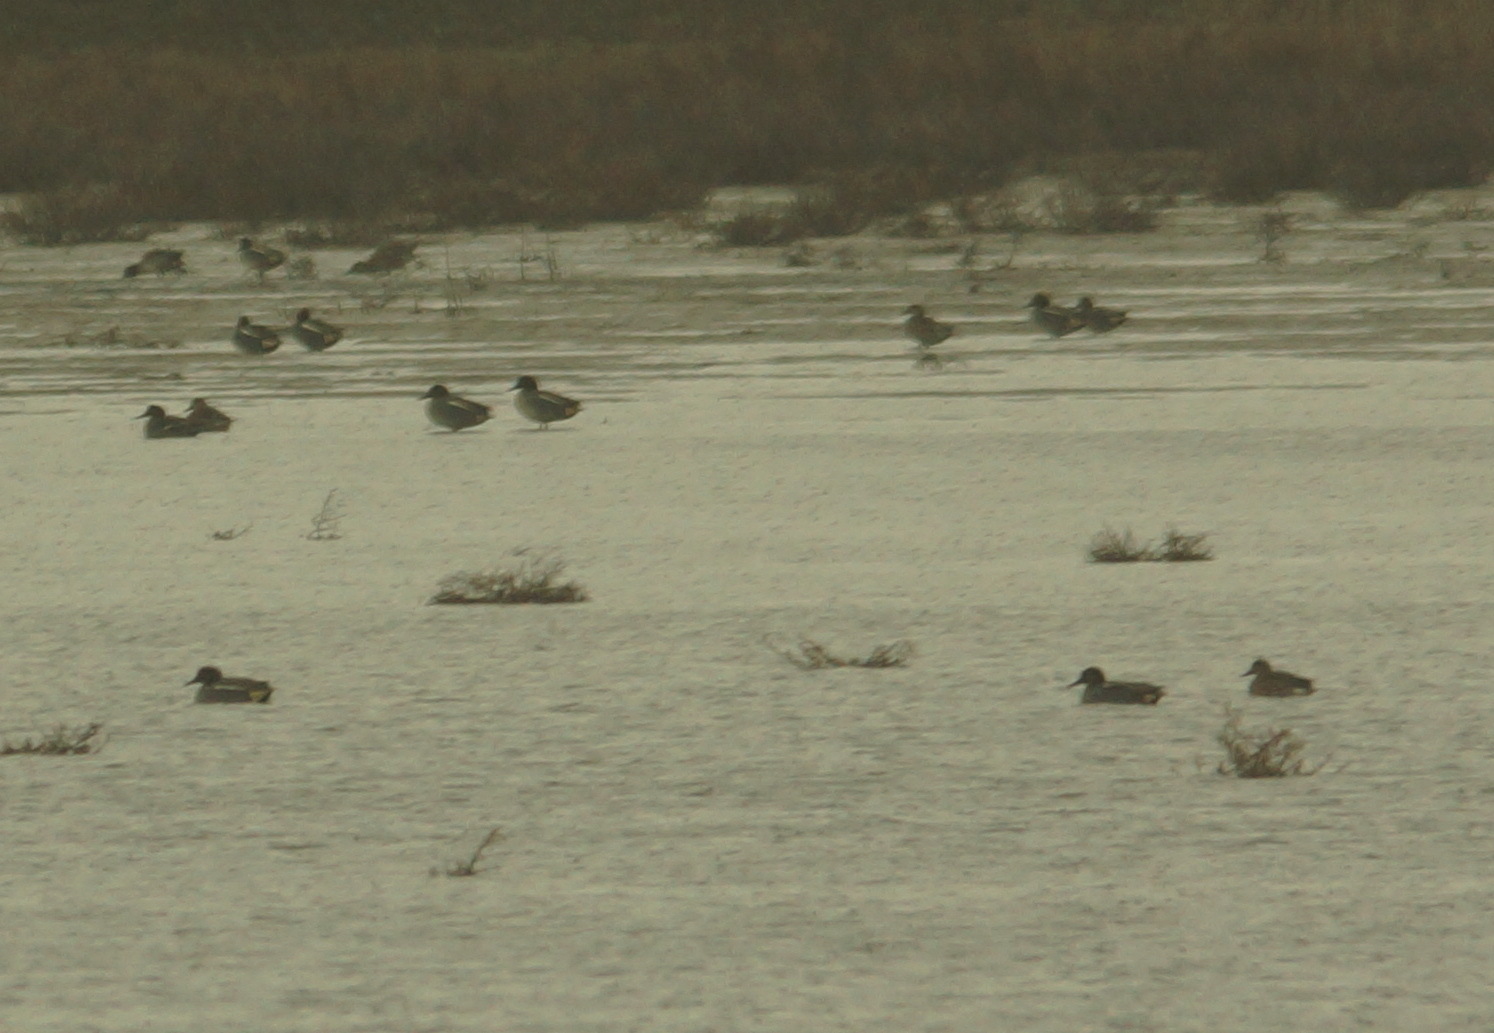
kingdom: Animalia
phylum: Chordata
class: Aves
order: Anseriformes
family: Anatidae
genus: Anas
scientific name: Anas crecca
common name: Eurasian teal
